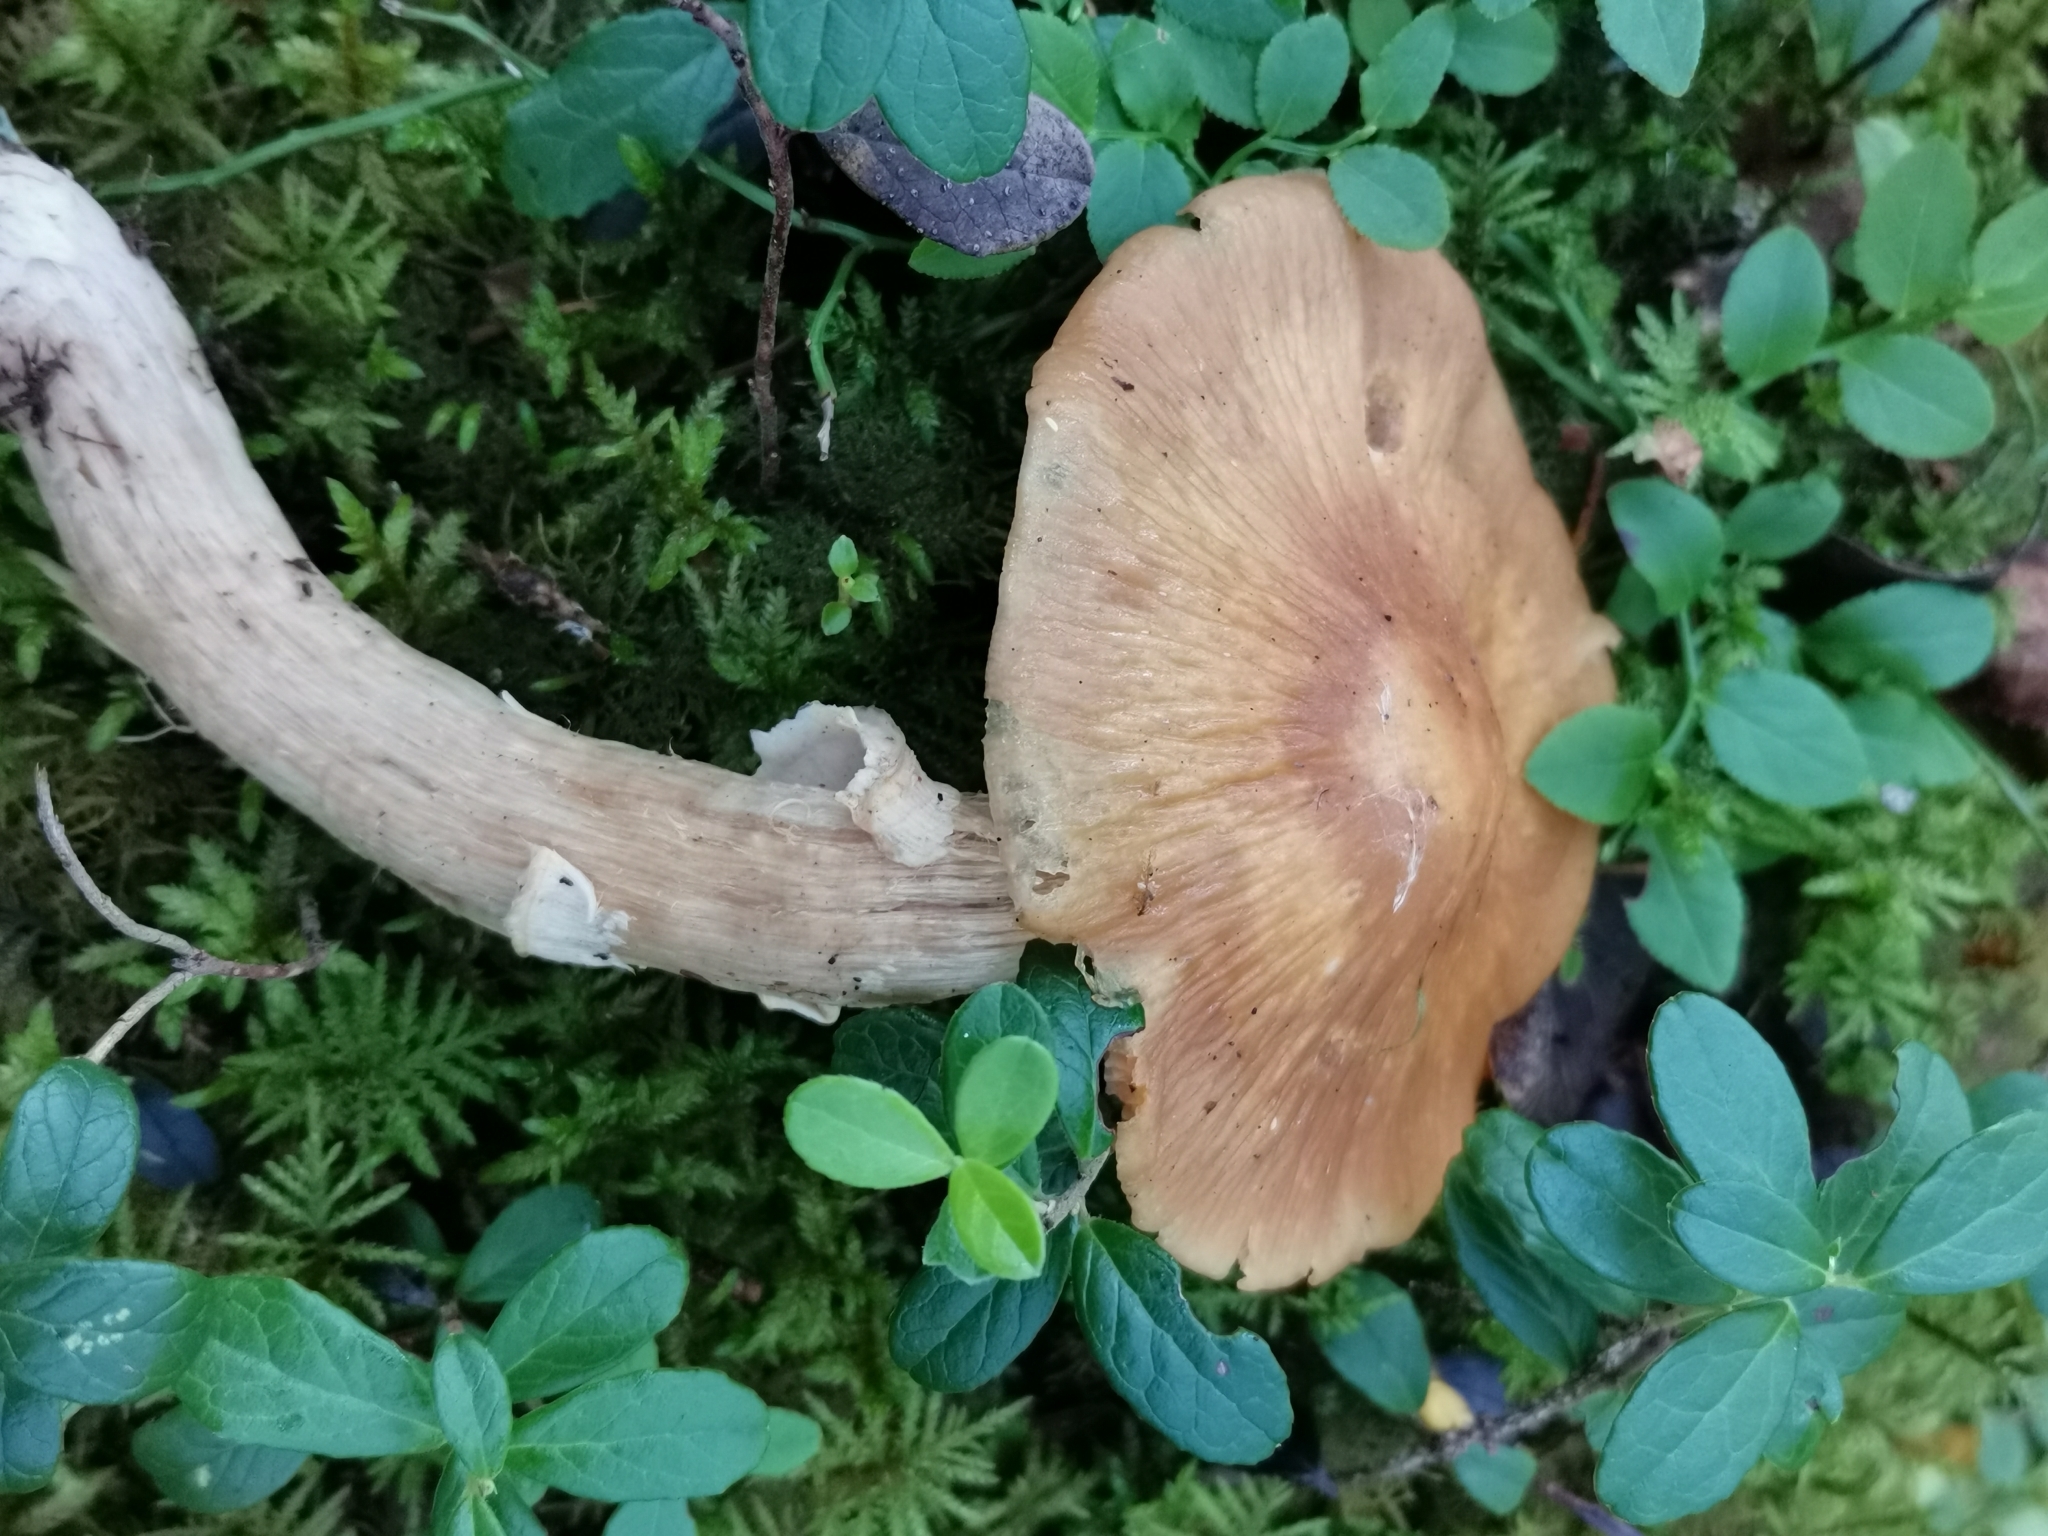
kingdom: Fungi
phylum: Basidiomycota
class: Agaricomycetes
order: Agaricales
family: Cortinariaceae
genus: Cortinarius
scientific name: Cortinarius caperatus
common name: The gypsy
